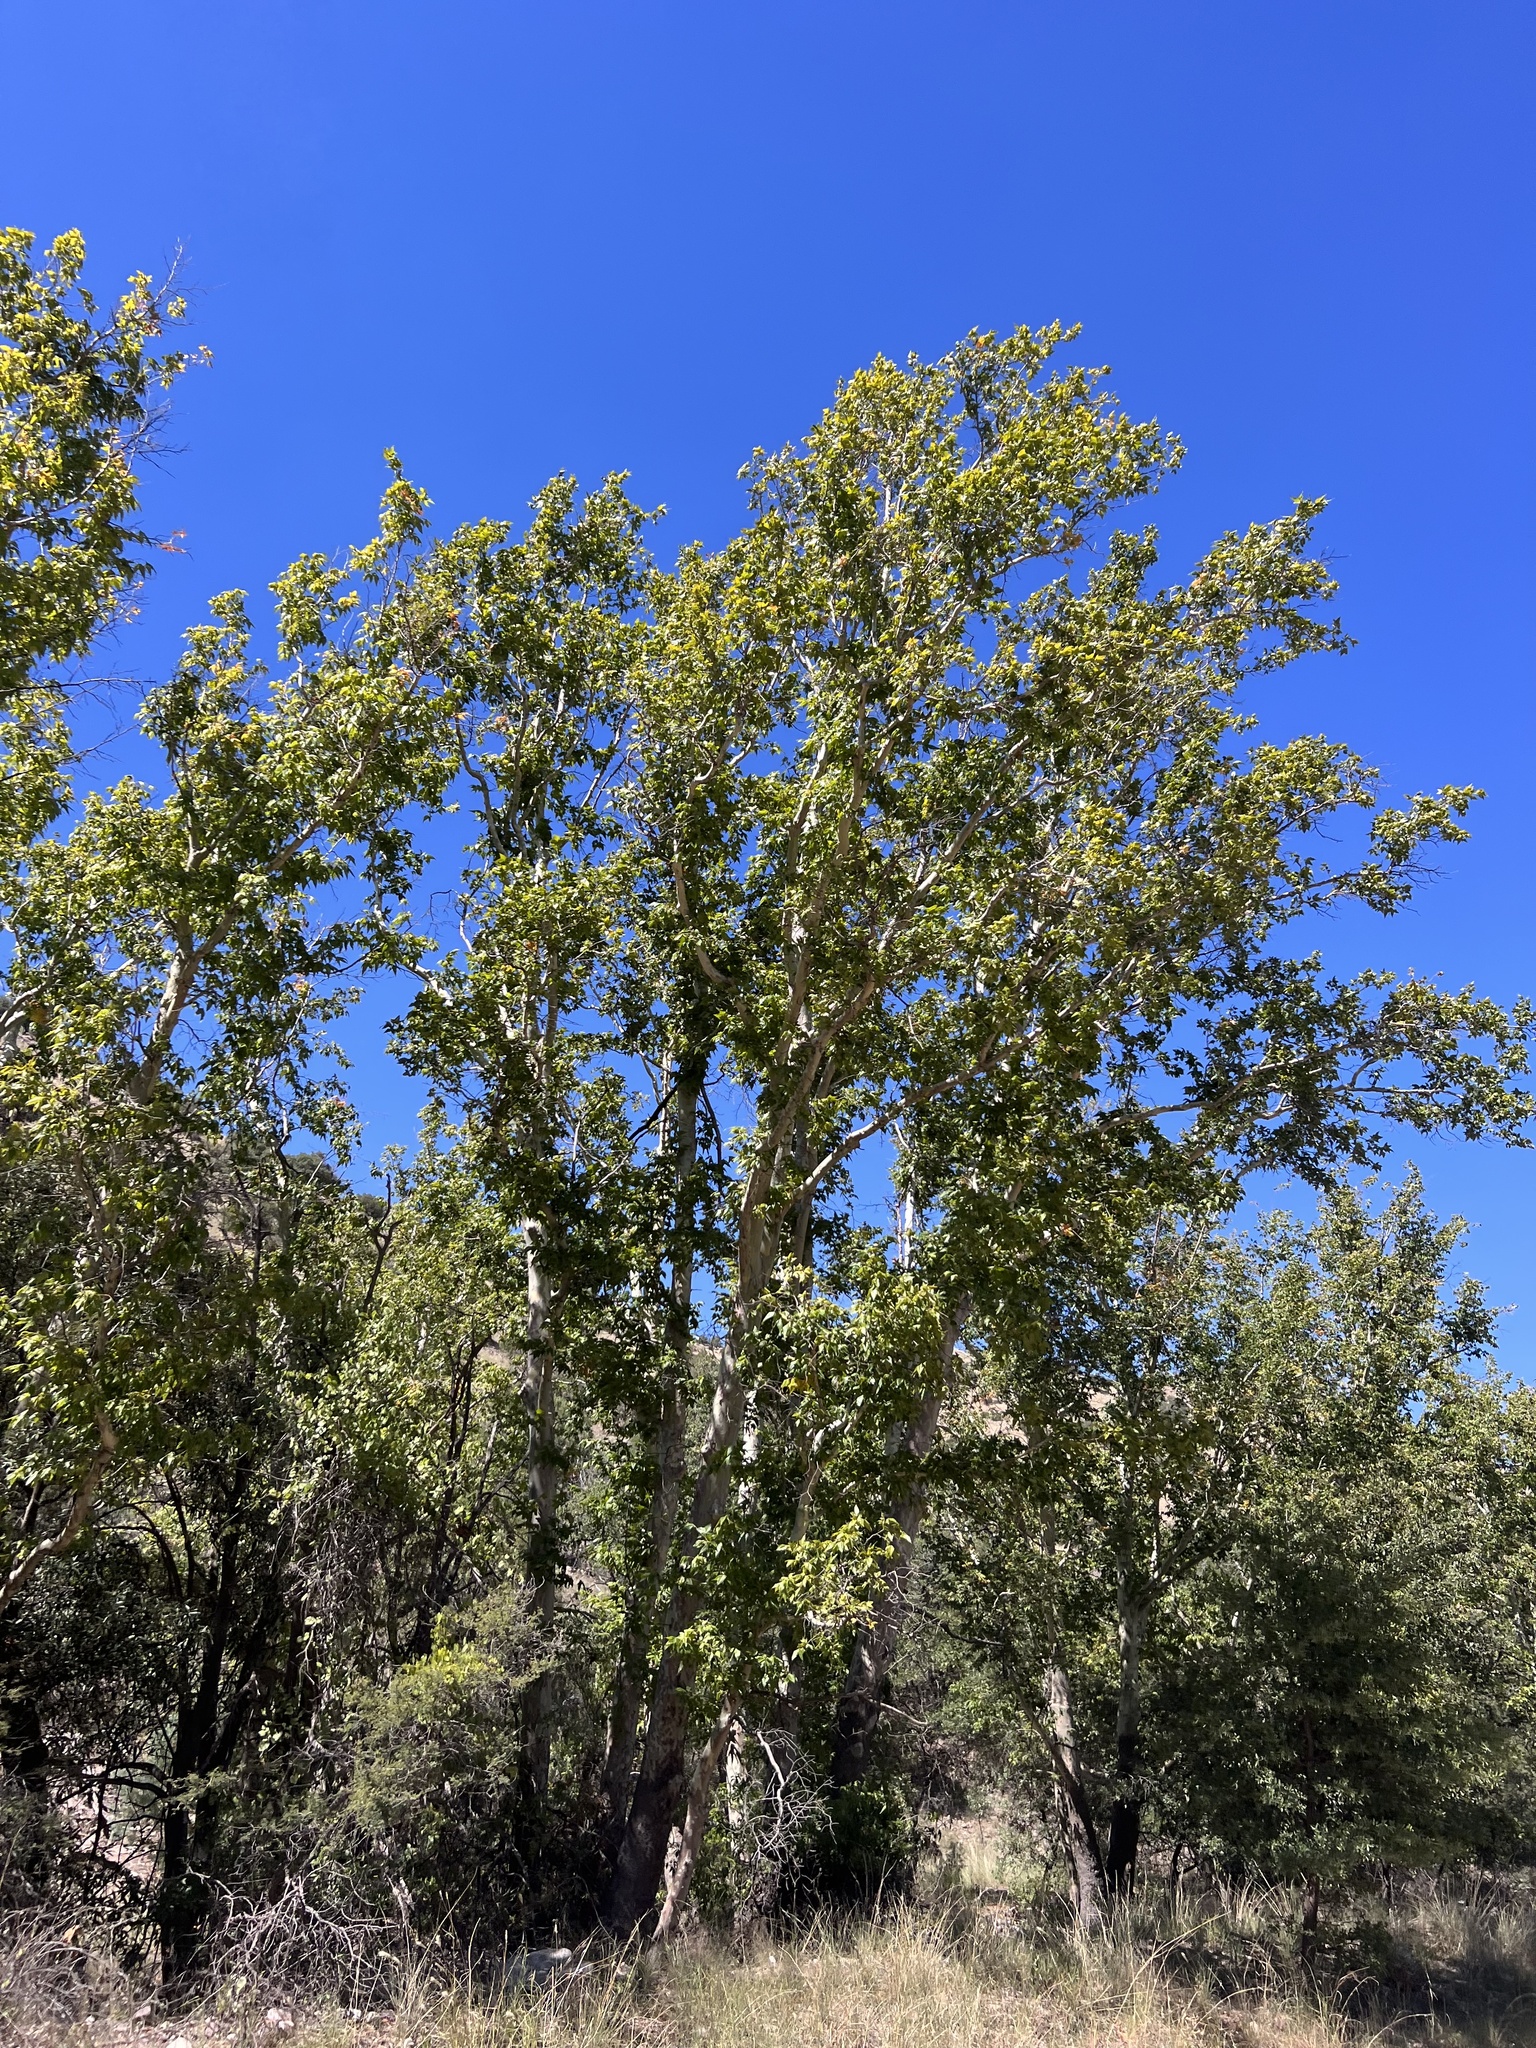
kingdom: Plantae
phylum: Tracheophyta
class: Magnoliopsida
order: Proteales
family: Platanaceae
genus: Platanus
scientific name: Platanus wrightii
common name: Arizona sycamore
